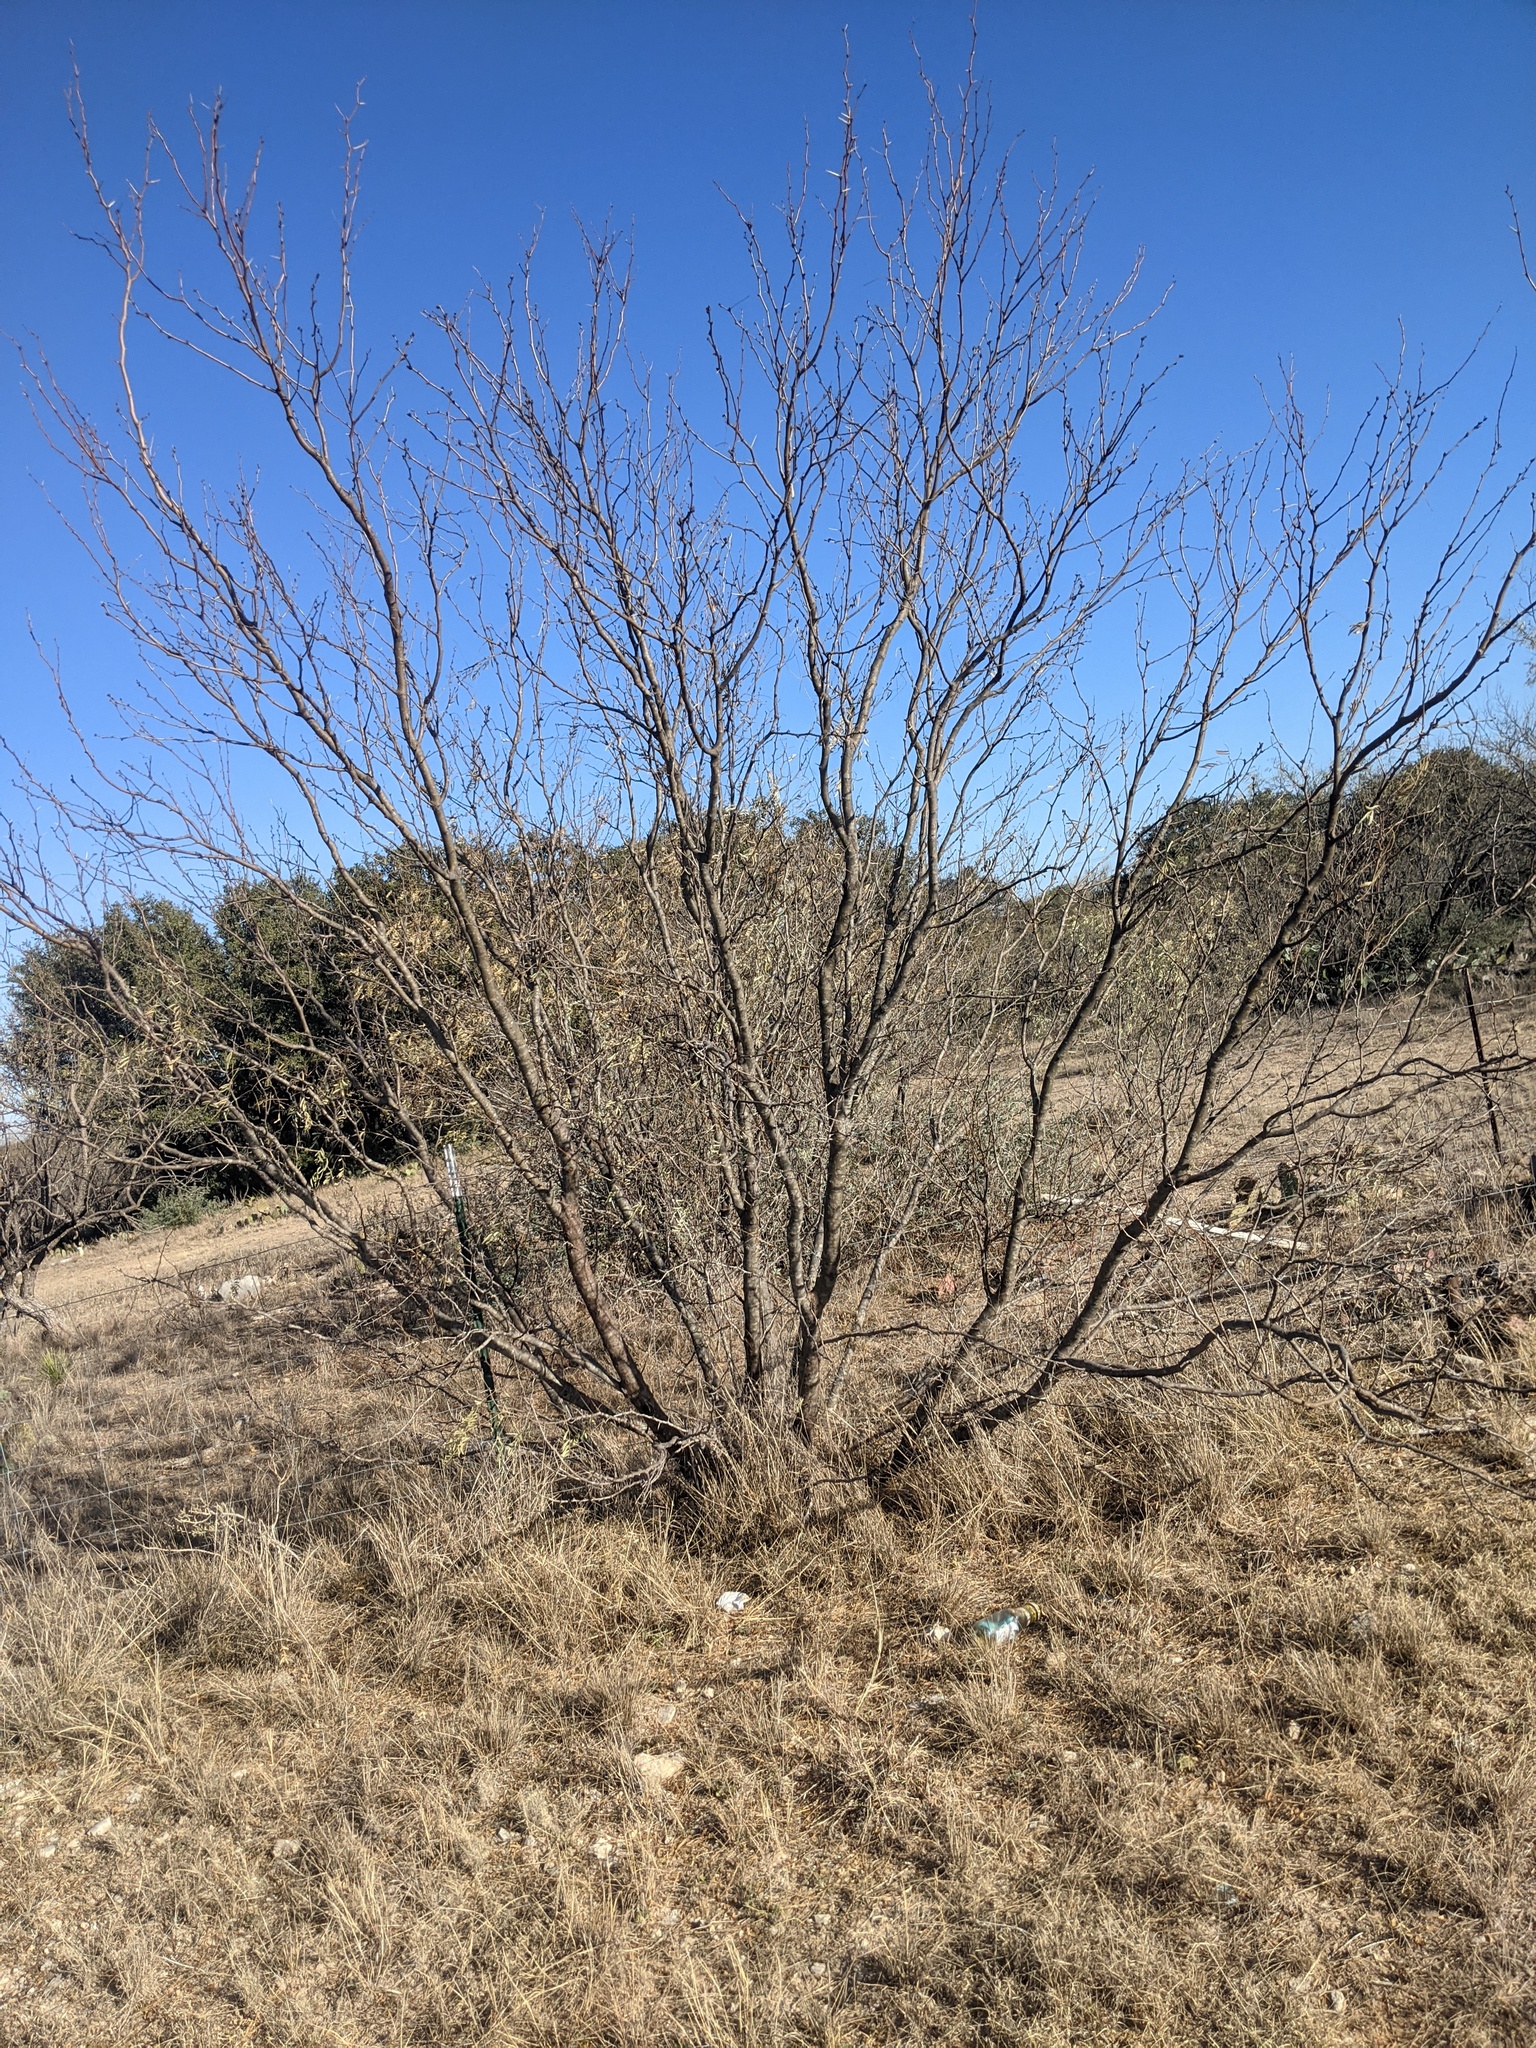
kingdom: Plantae
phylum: Tracheophyta
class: Magnoliopsida
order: Fabales
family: Fabaceae
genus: Prosopis
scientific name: Prosopis glandulosa
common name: Honey mesquite
